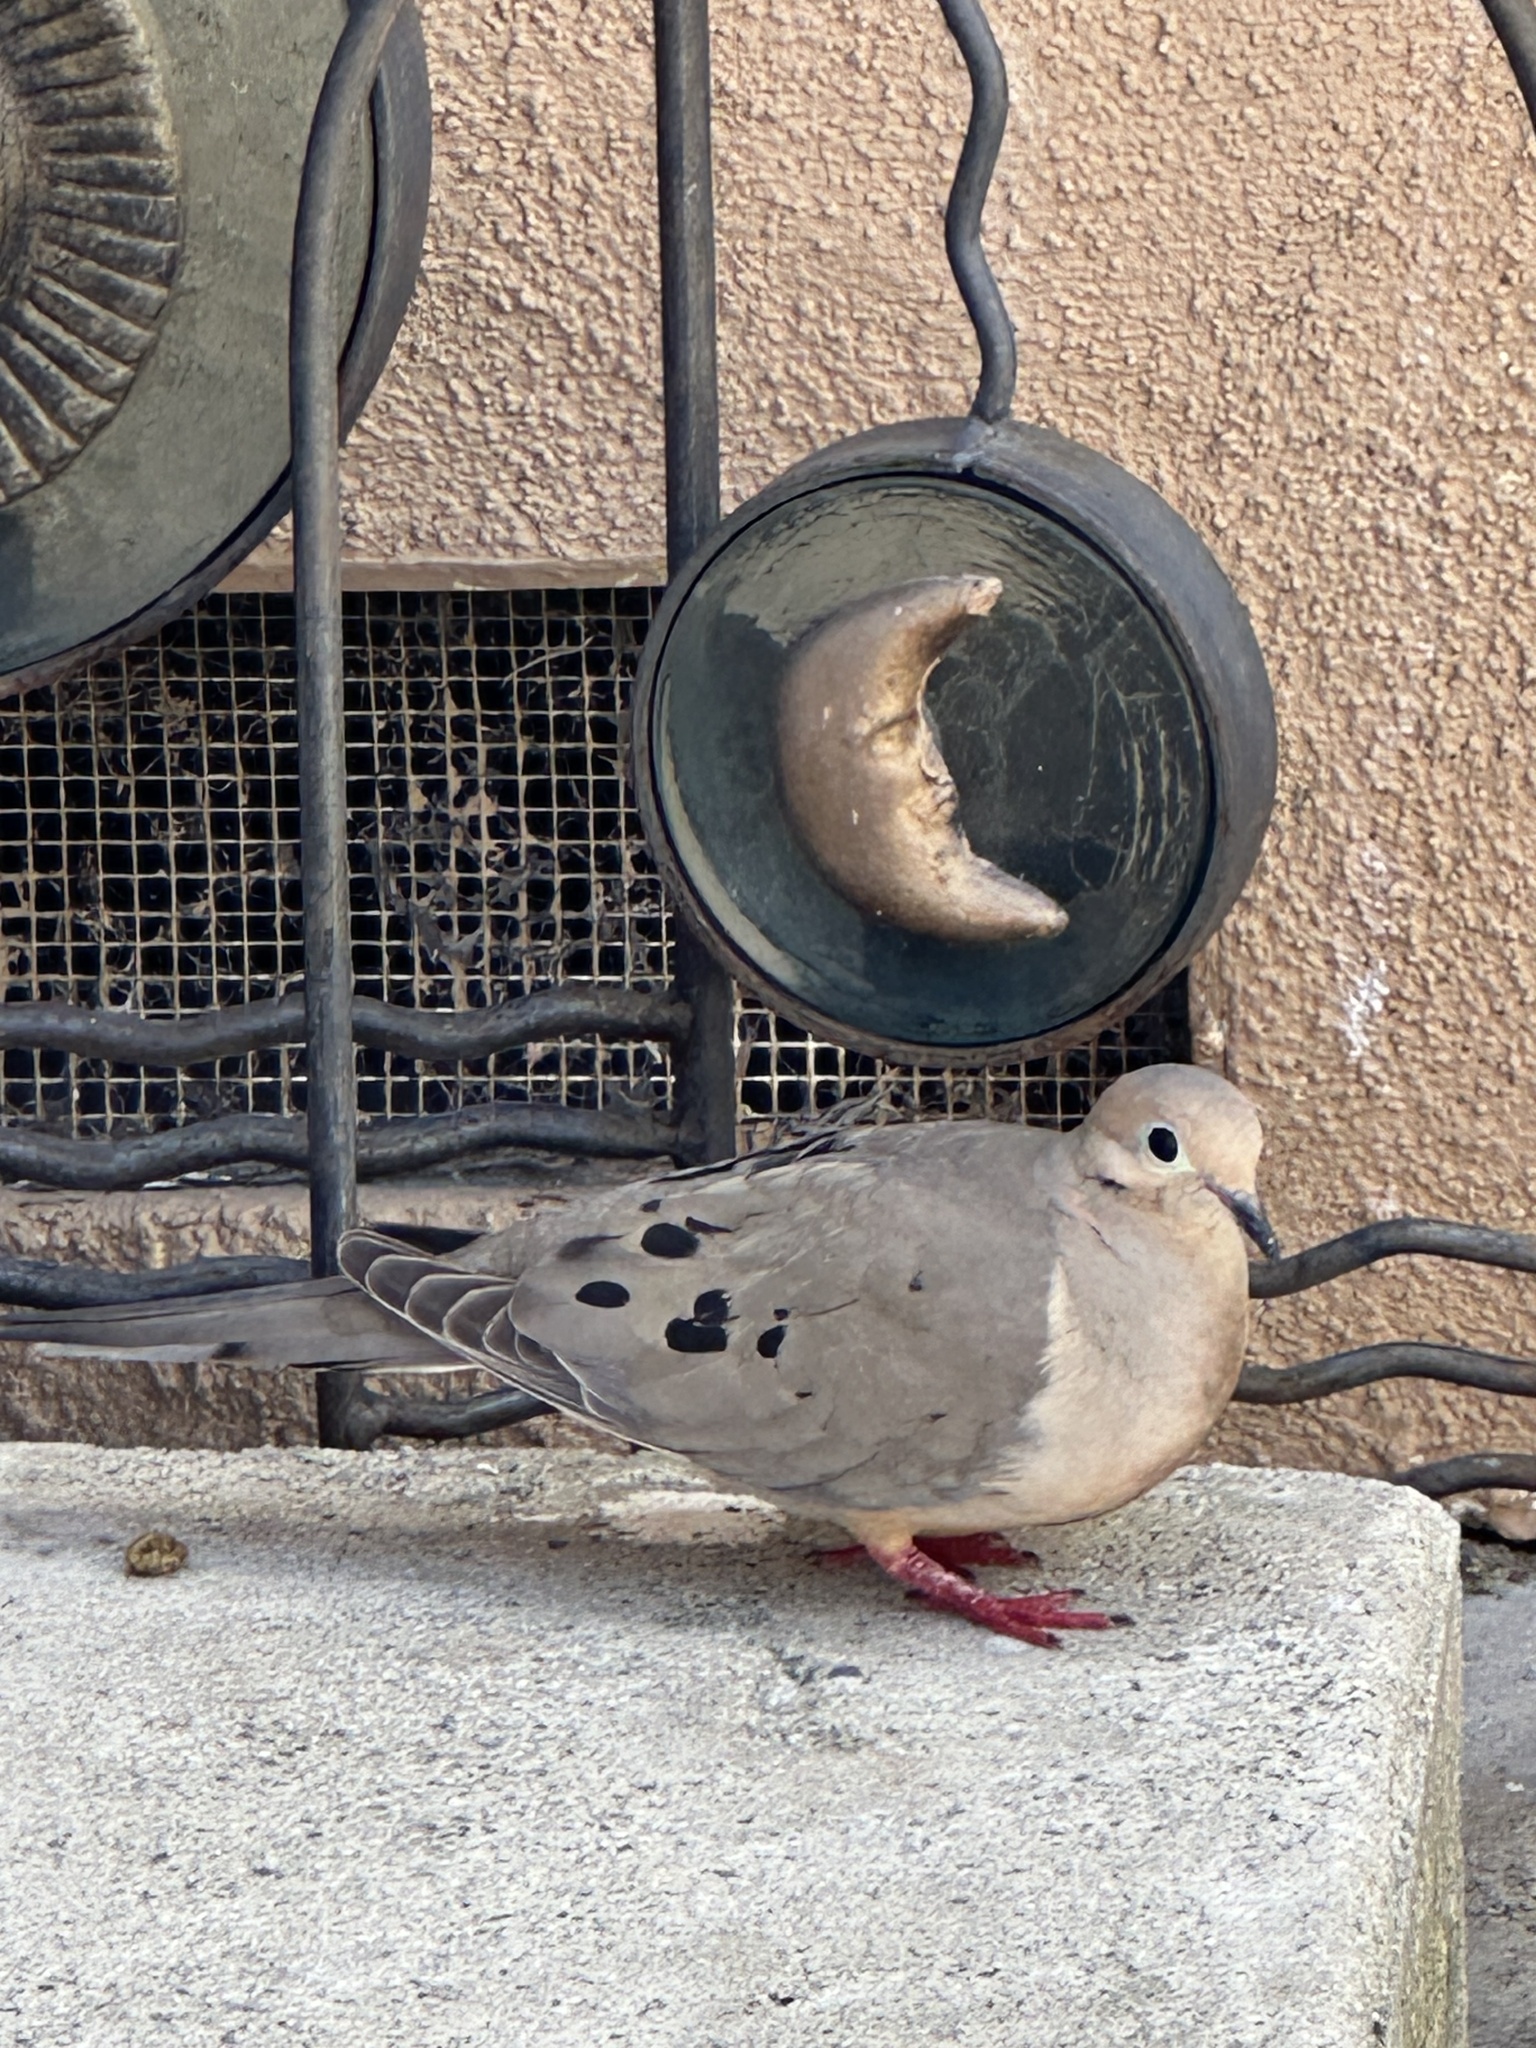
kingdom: Animalia
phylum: Chordata
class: Aves
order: Columbiformes
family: Columbidae
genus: Zenaida
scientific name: Zenaida macroura
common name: Mourning dove
